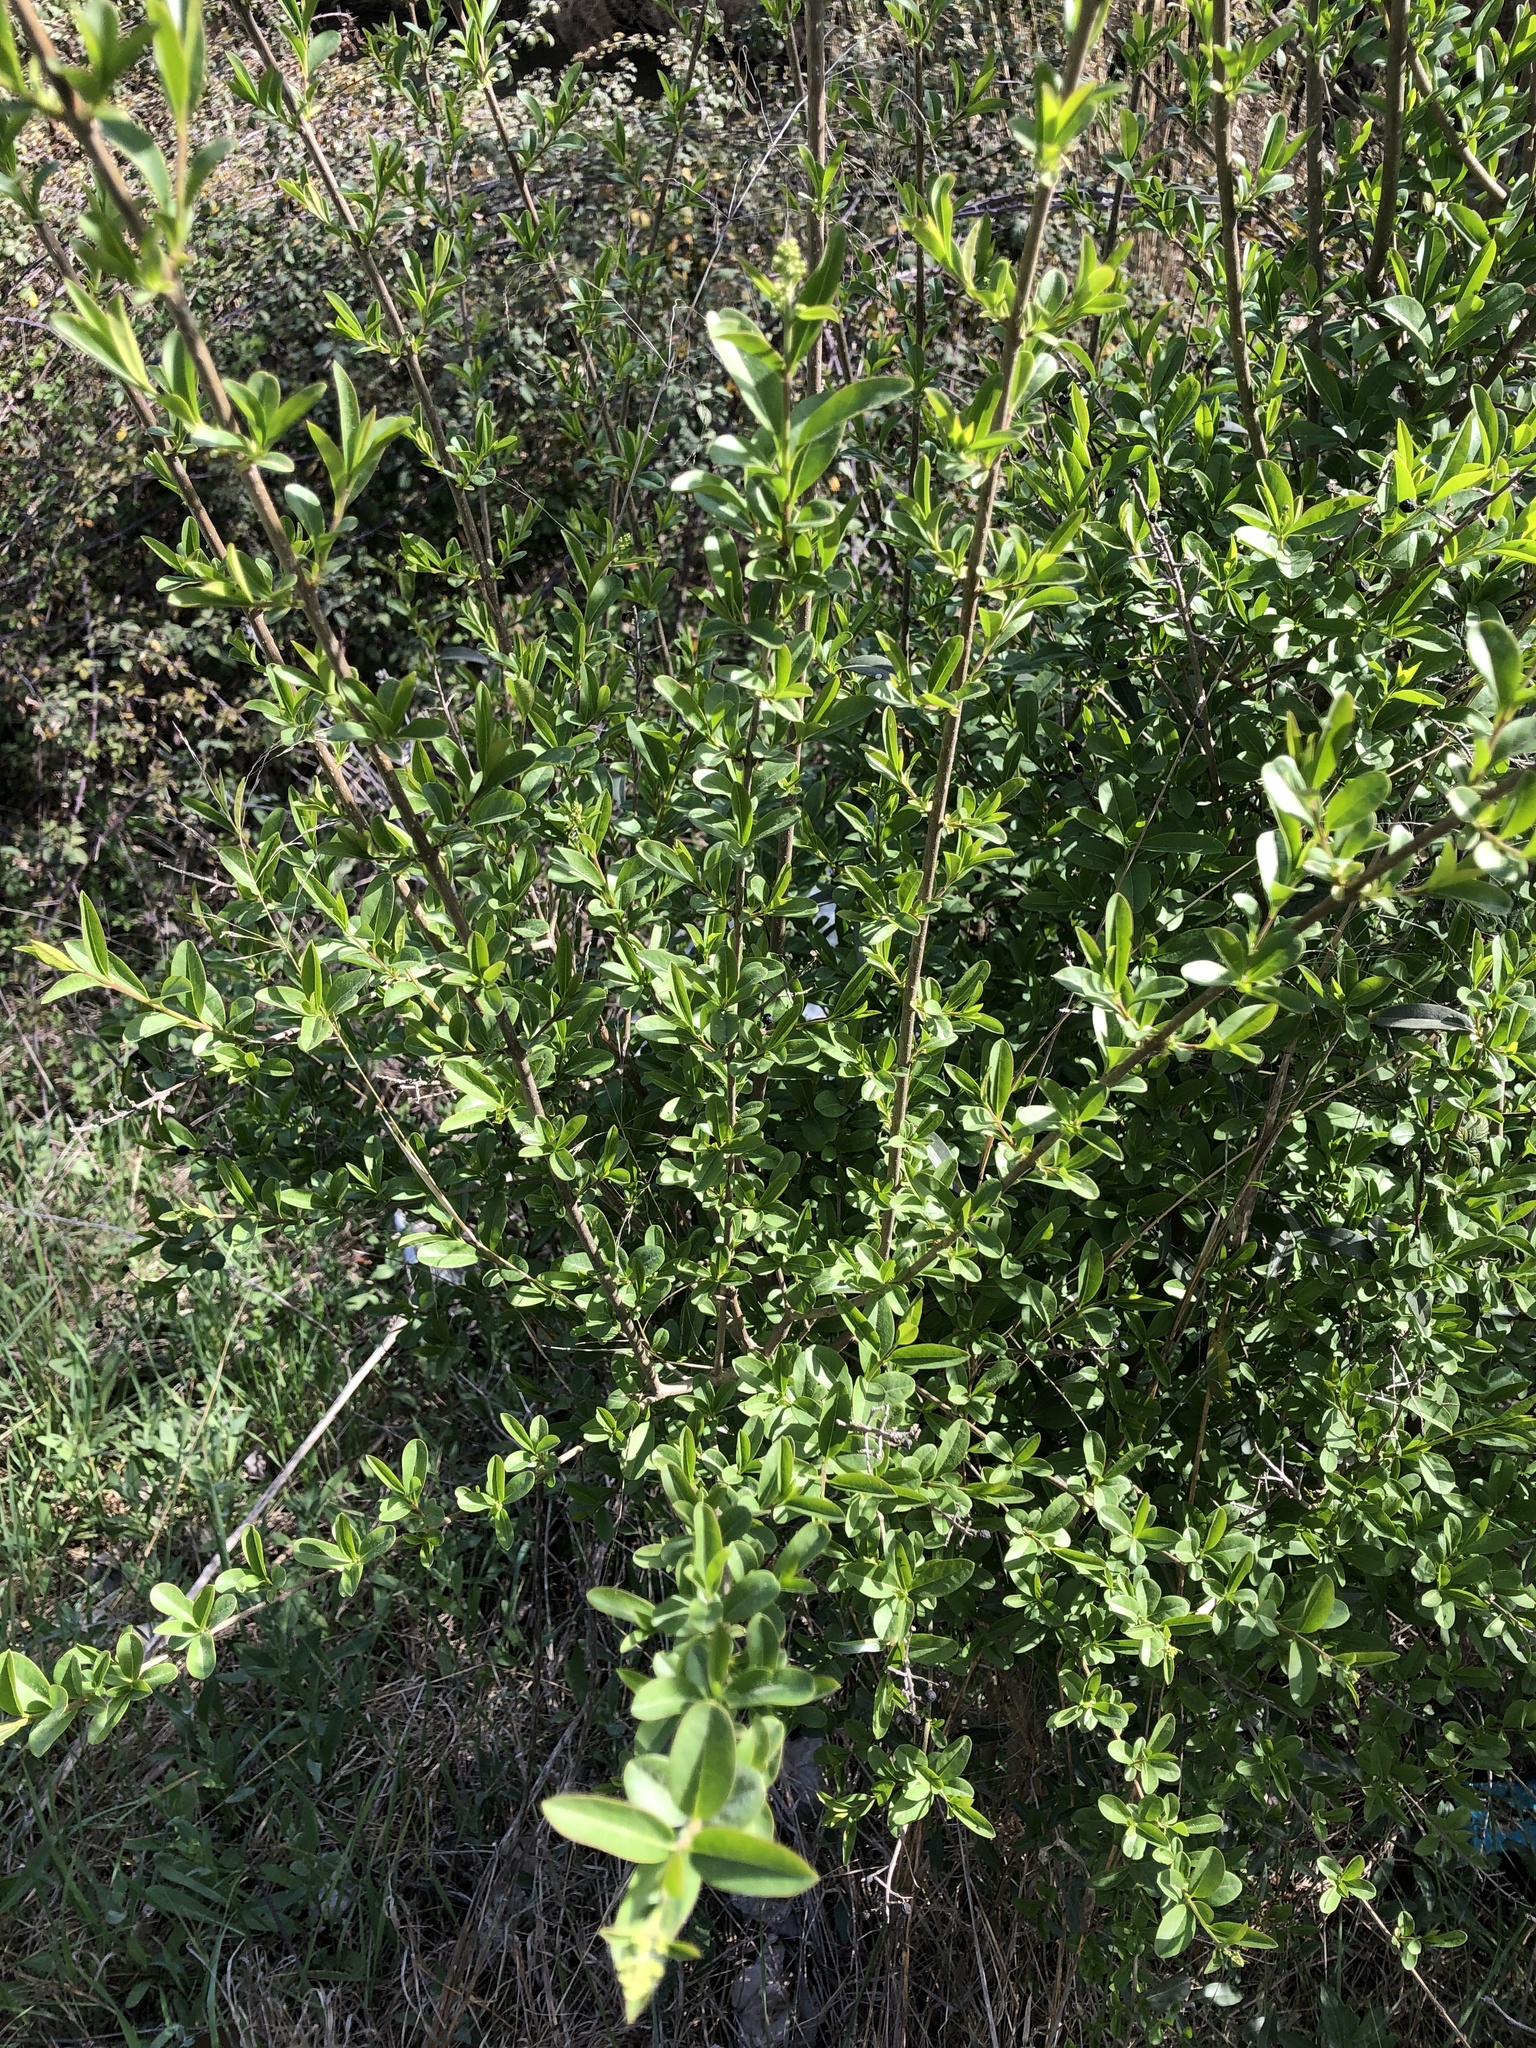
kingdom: Plantae
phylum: Tracheophyta
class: Magnoliopsida
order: Lamiales
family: Oleaceae
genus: Ligustrum
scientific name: Ligustrum vulgare
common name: Wild privet
